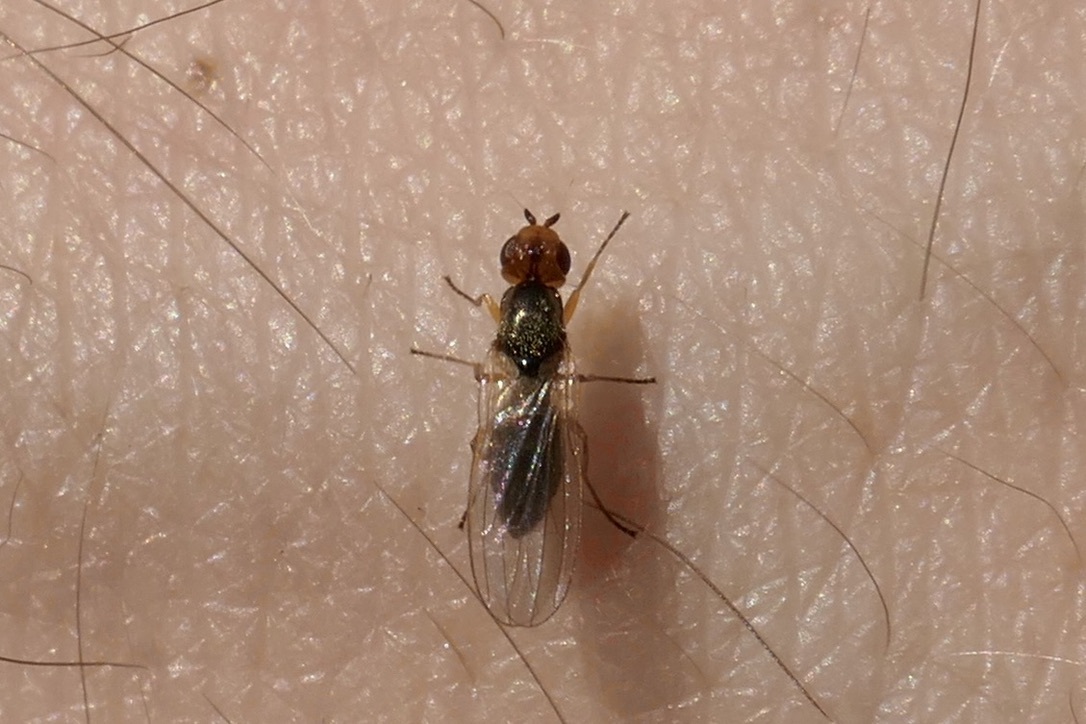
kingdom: Animalia
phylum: Arthropoda
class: Insecta
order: Diptera
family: Psilidae
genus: Chamaepsila
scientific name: Chamaepsila
